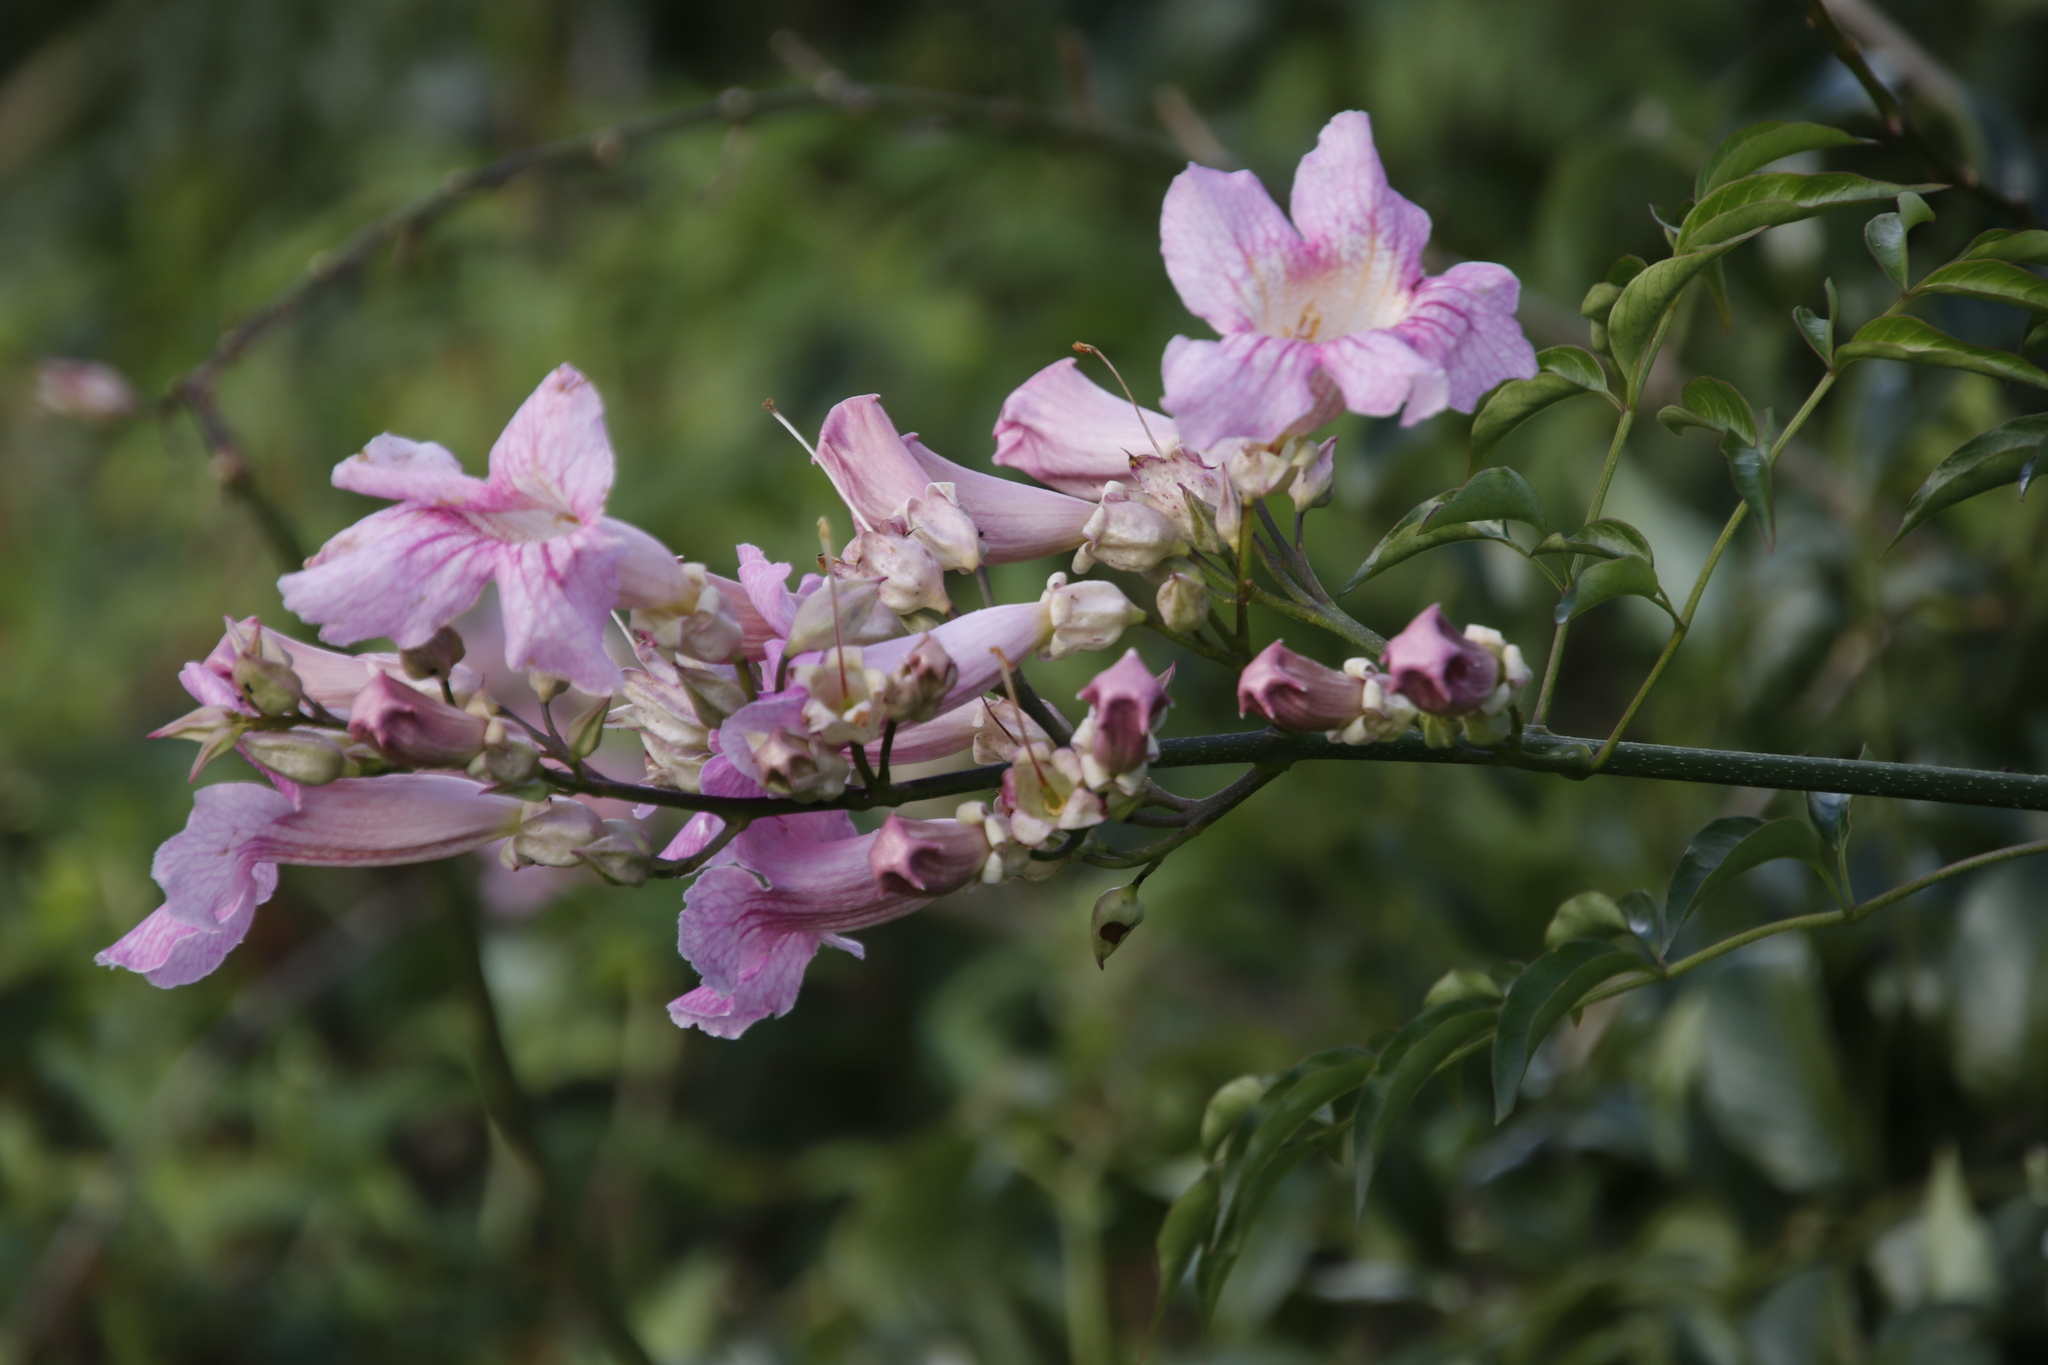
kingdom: Plantae
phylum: Tracheophyta
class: Magnoliopsida
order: Lamiales
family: Bignoniaceae
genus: Podranea
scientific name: Podranea ricasoliana
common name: Zimbabwe creeper
